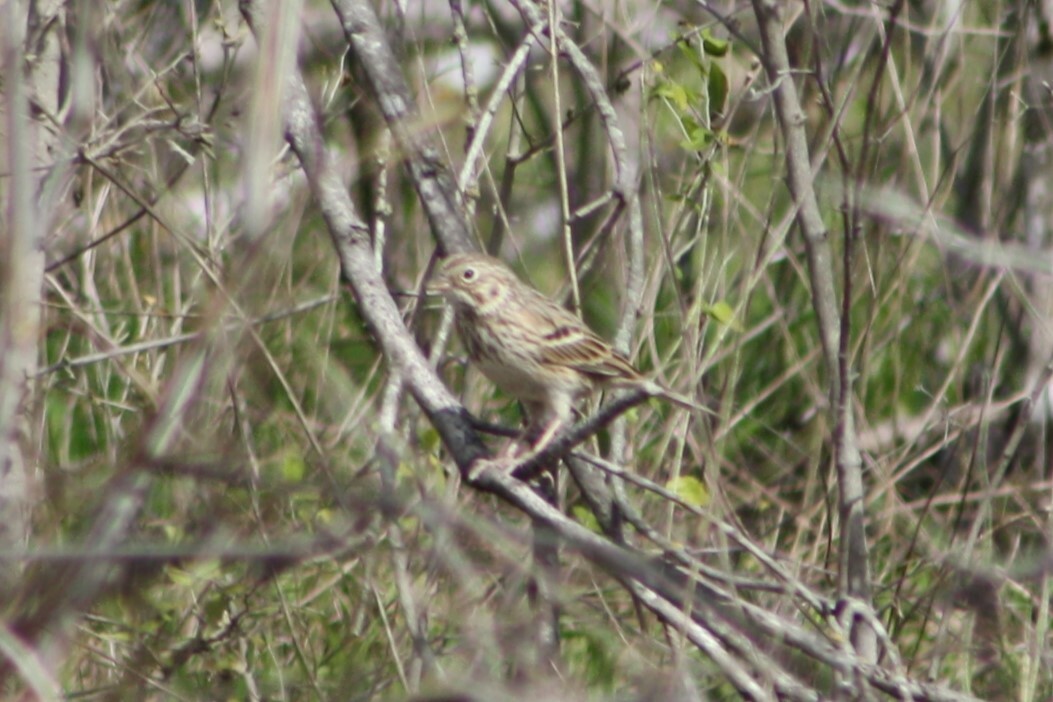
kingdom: Animalia
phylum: Chordata
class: Aves
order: Passeriformes
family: Passerellidae
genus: Pooecetes
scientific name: Pooecetes gramineus
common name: Vesper sparrow
